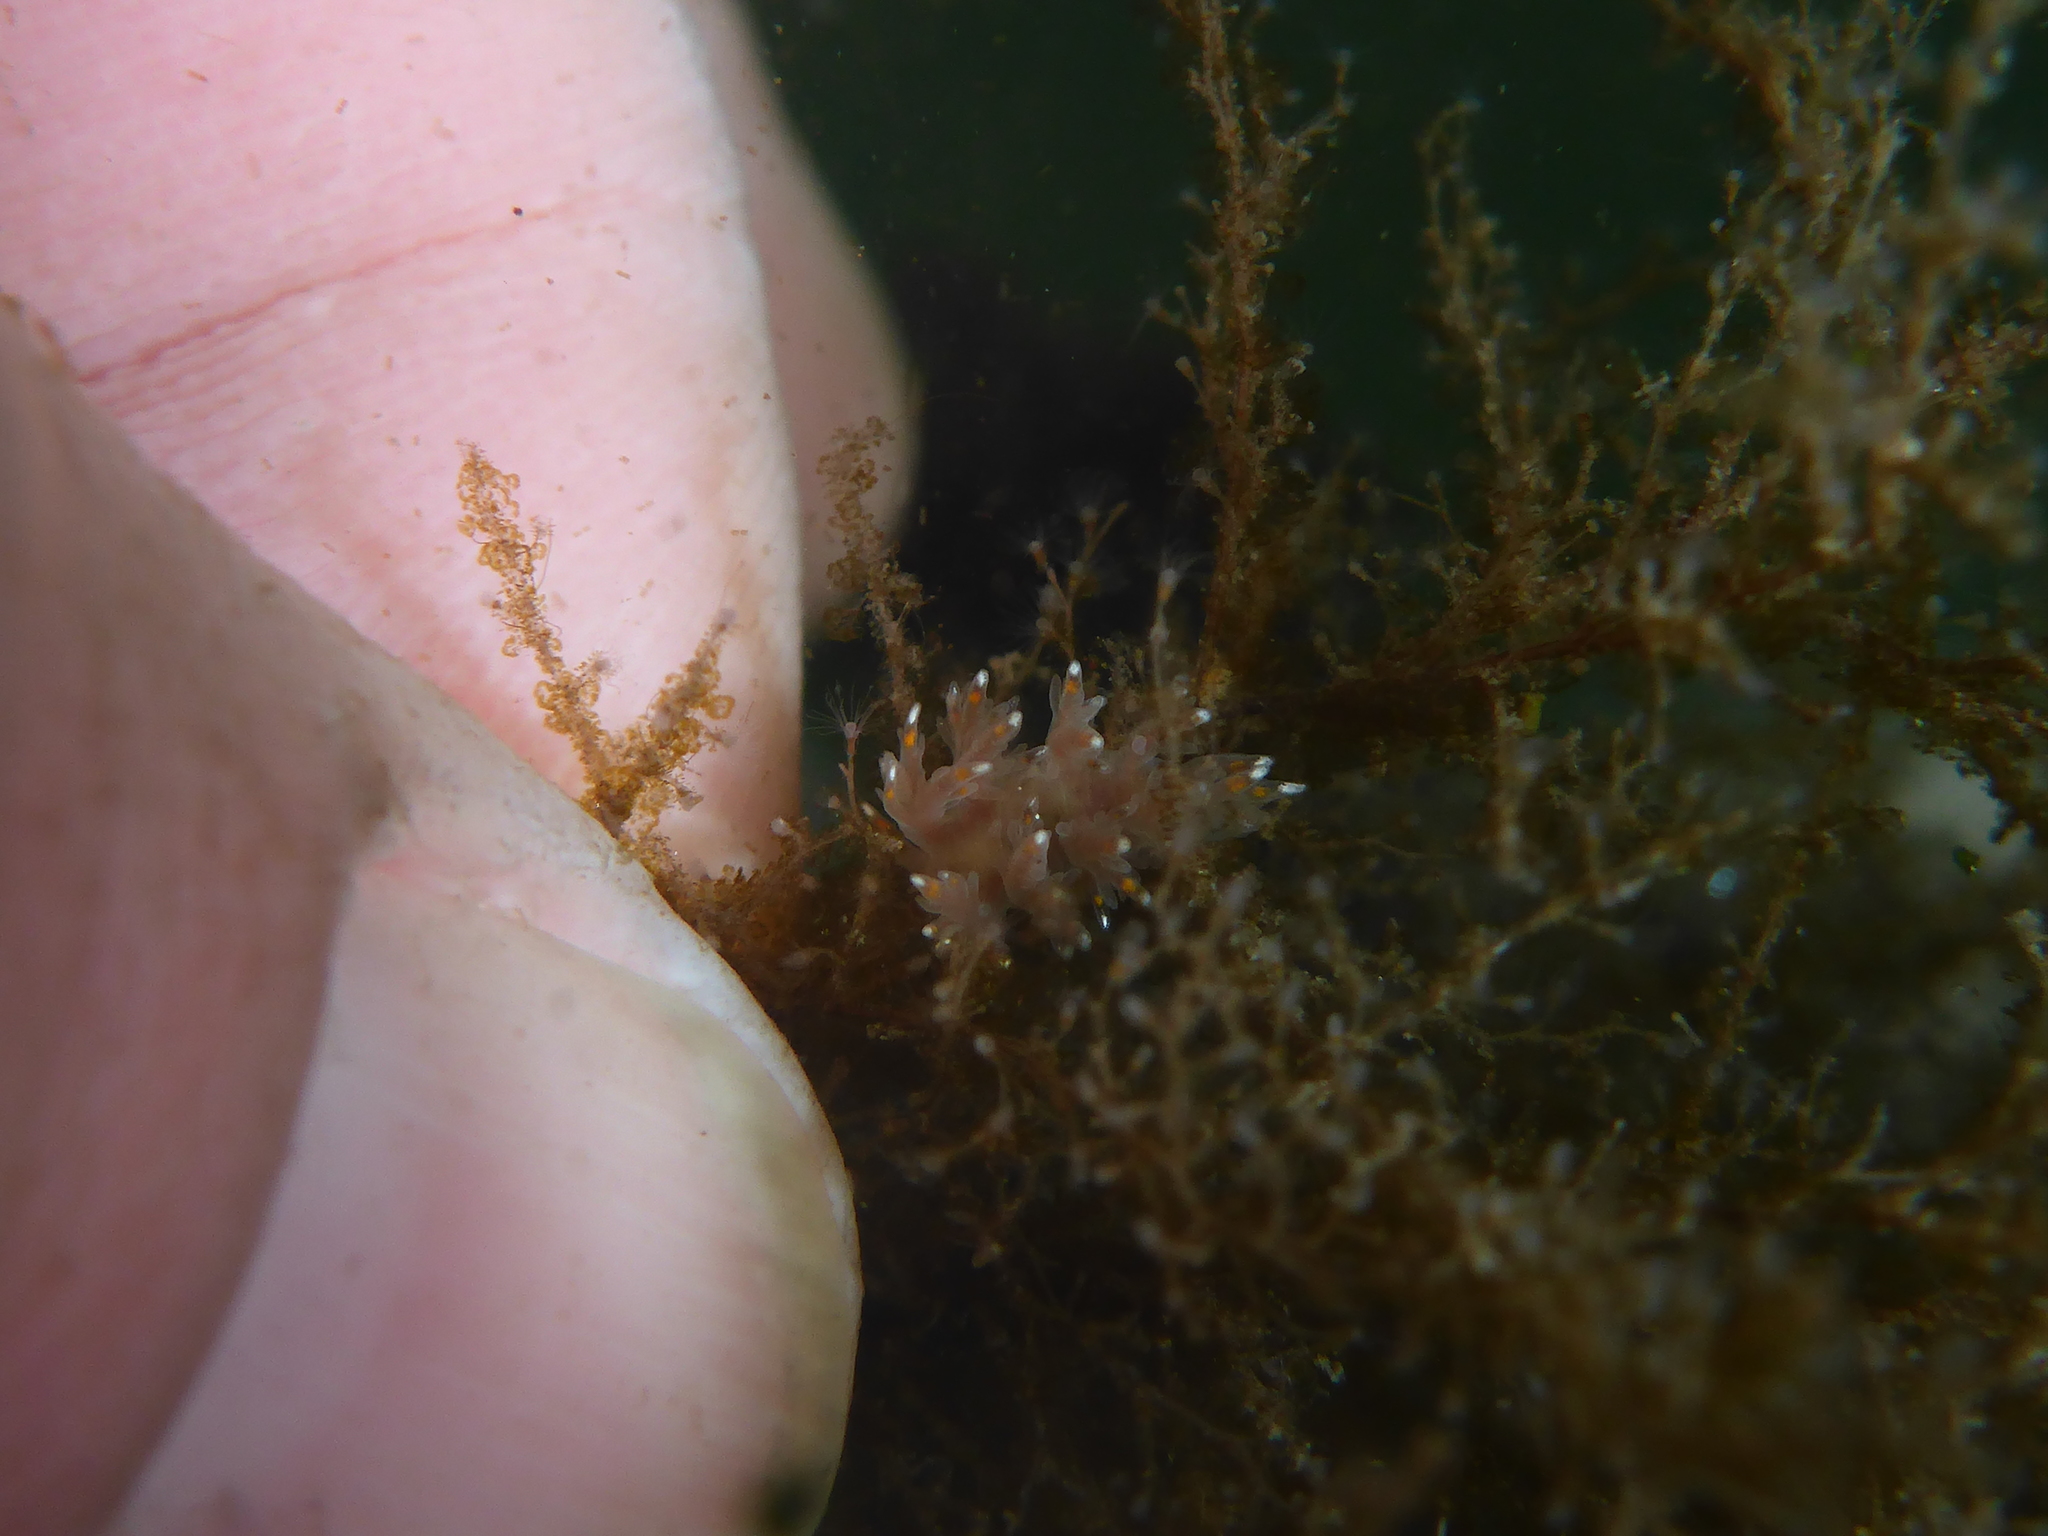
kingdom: Animalia
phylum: Mollusca
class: Gastropoda
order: Nudibranchia
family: Dendronotidae
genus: Dendronotus
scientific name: Dendronotus iris
